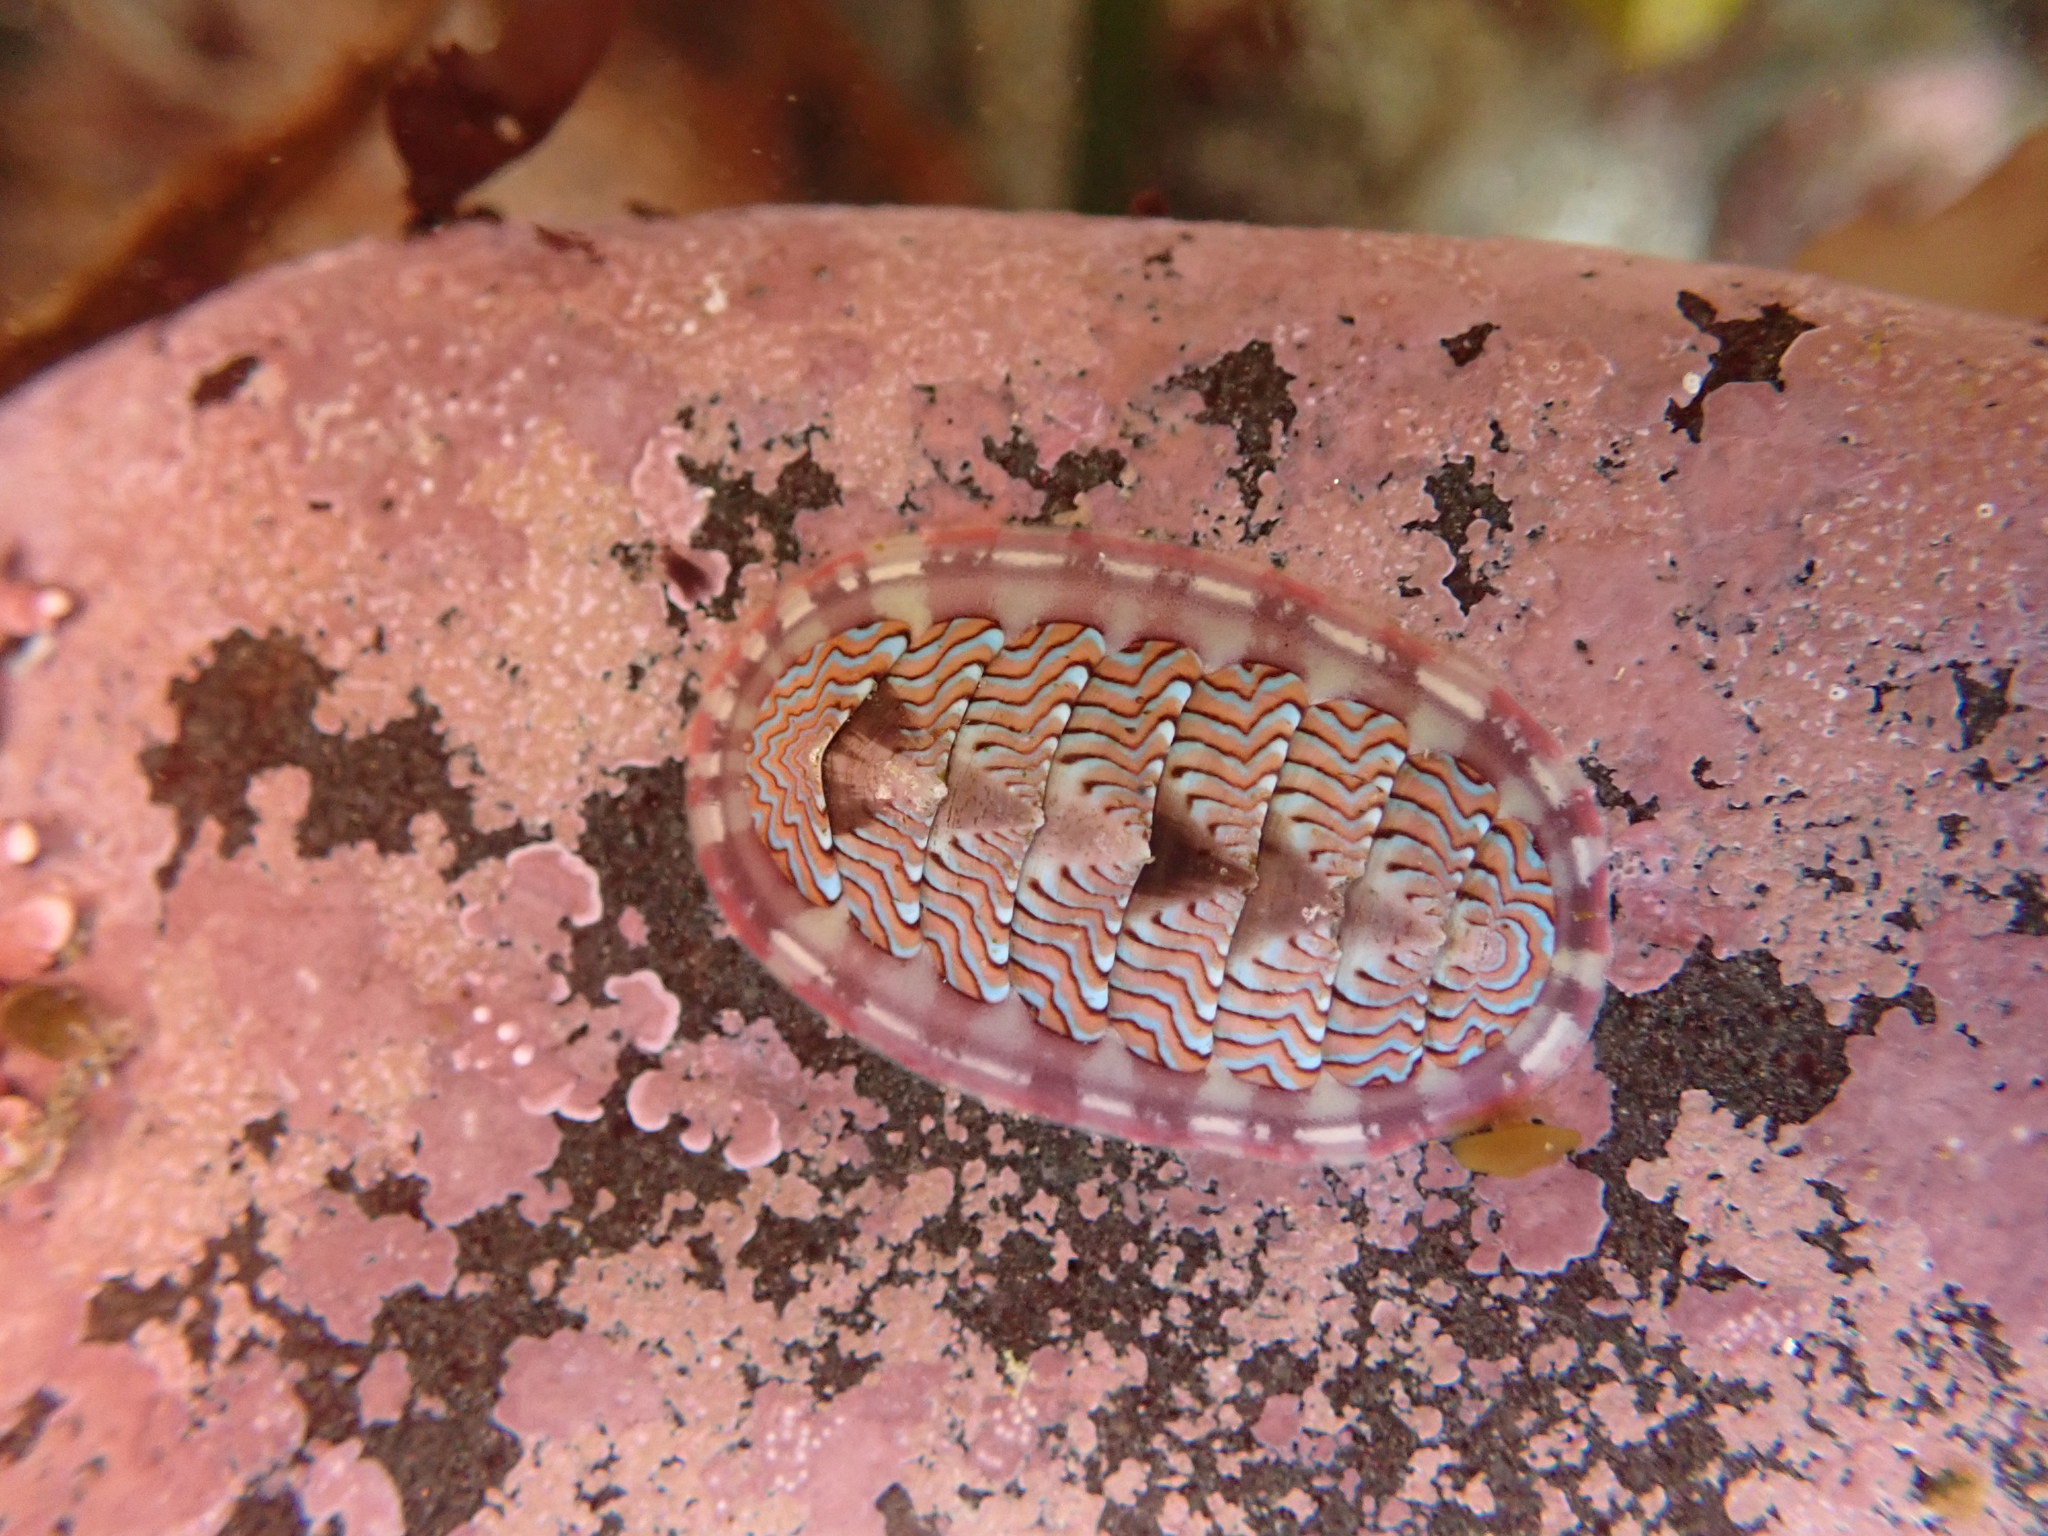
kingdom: Animalia
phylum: Mollusca
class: Polyplacophora
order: Chitonida
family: Tonicellidae
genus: Tonicella
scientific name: Tonicella lokii
